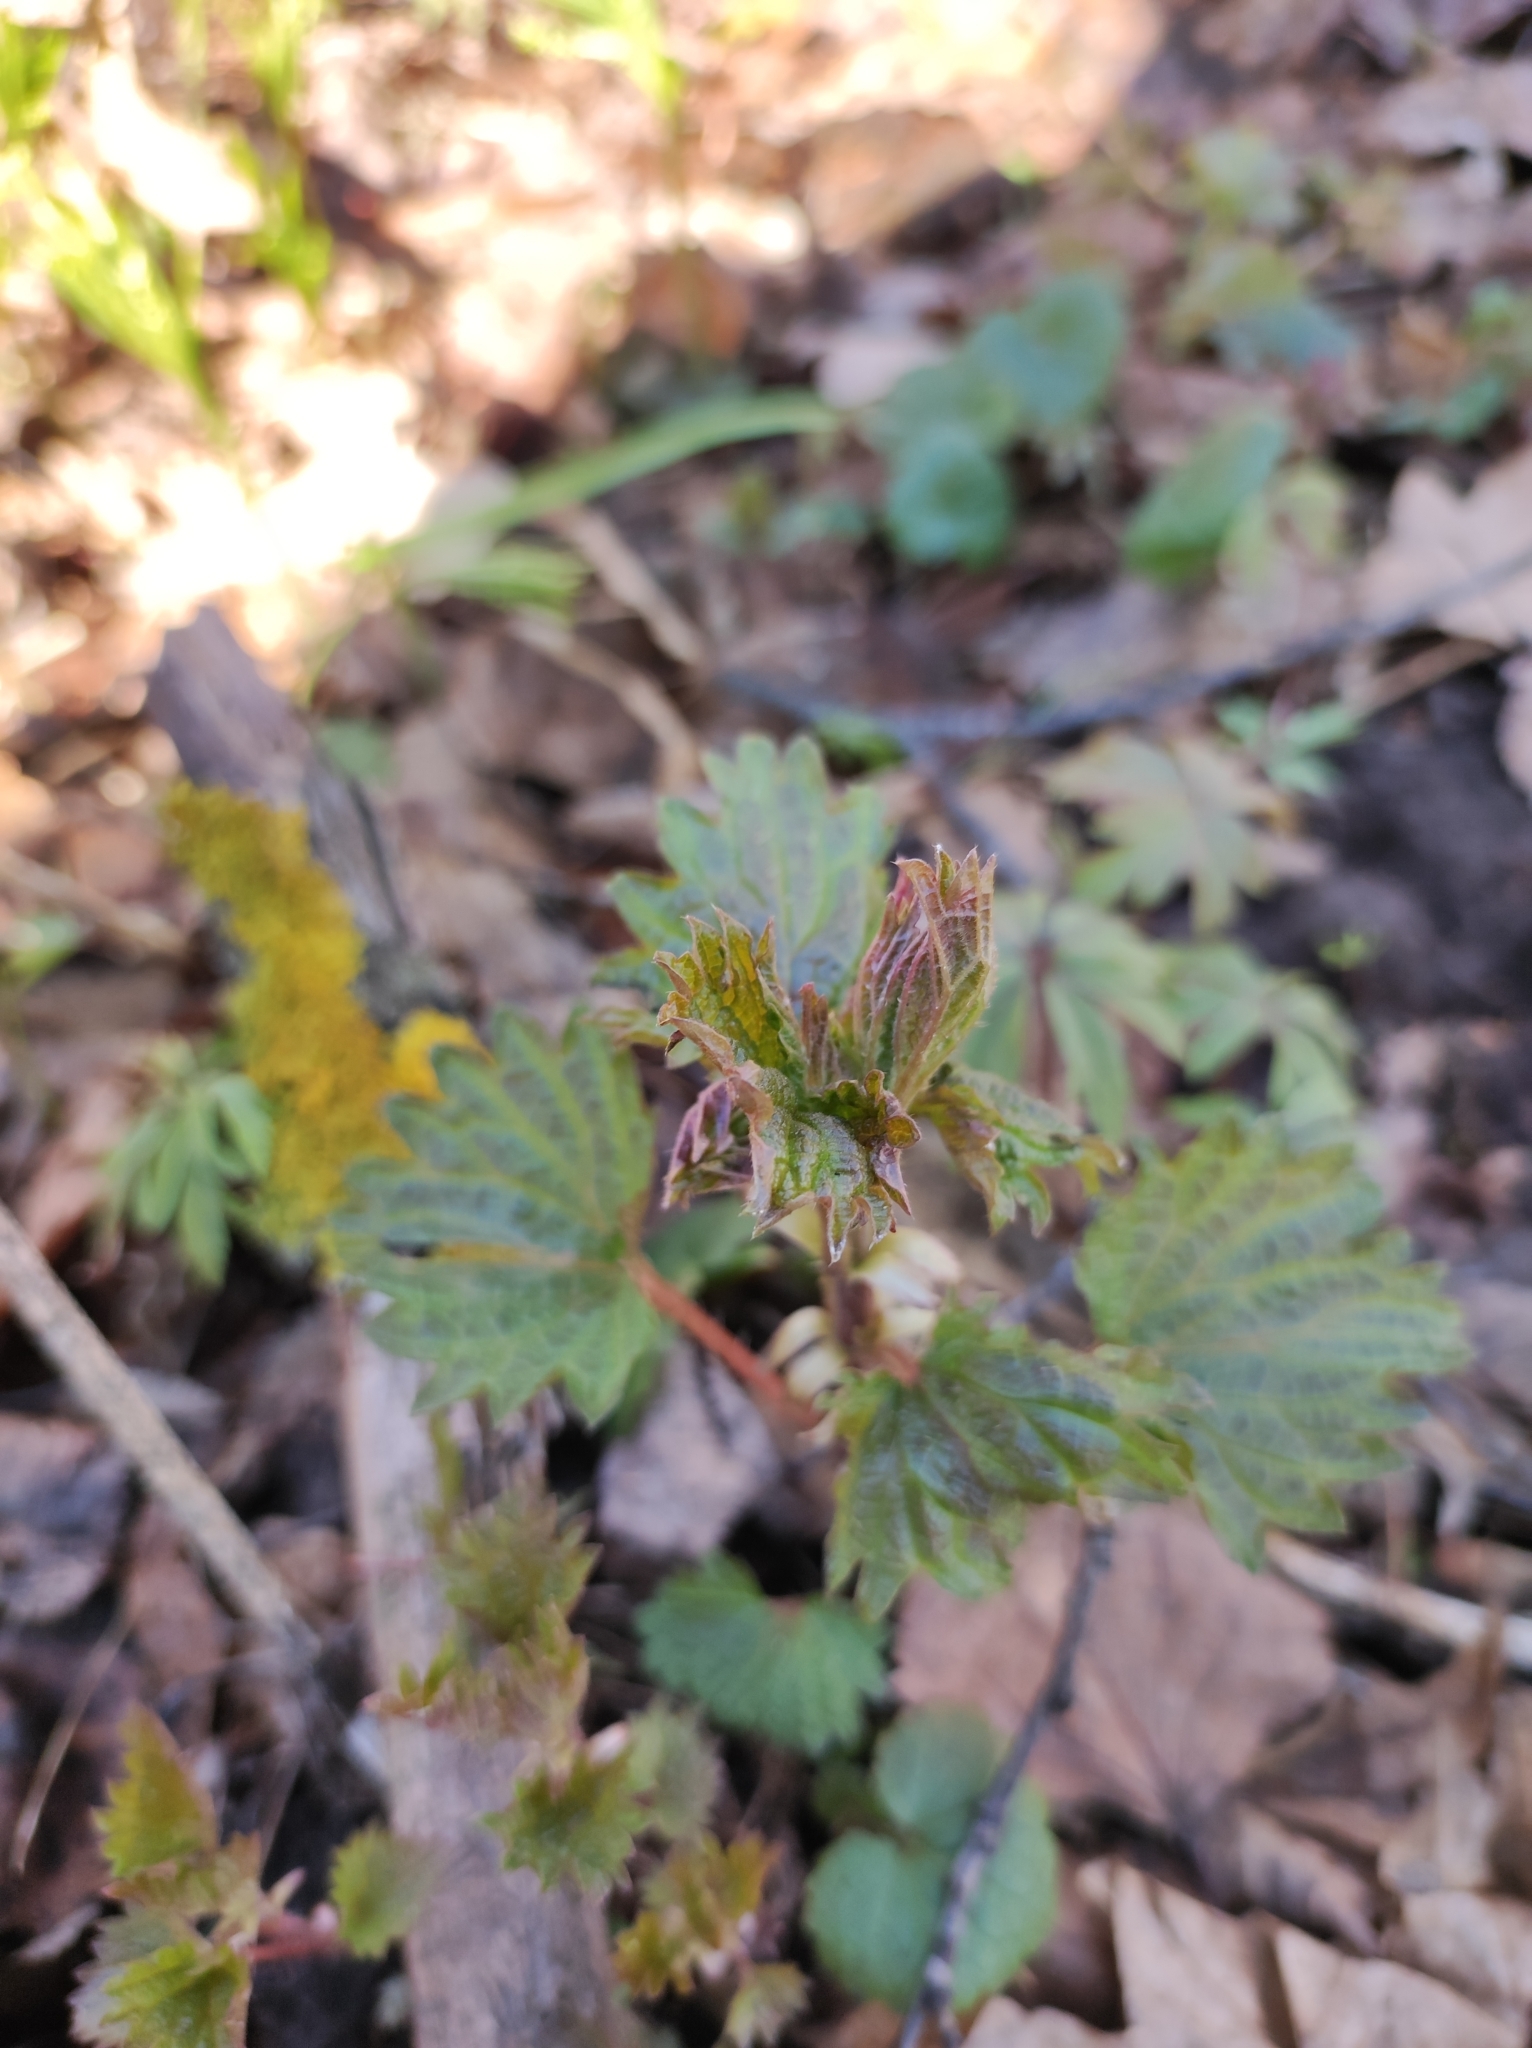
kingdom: Plantae
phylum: Tracheophyta
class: Magnoliopsida
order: Rosales
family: Urticaceae
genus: Urtica
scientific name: Urtica dioica
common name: Common nettle
